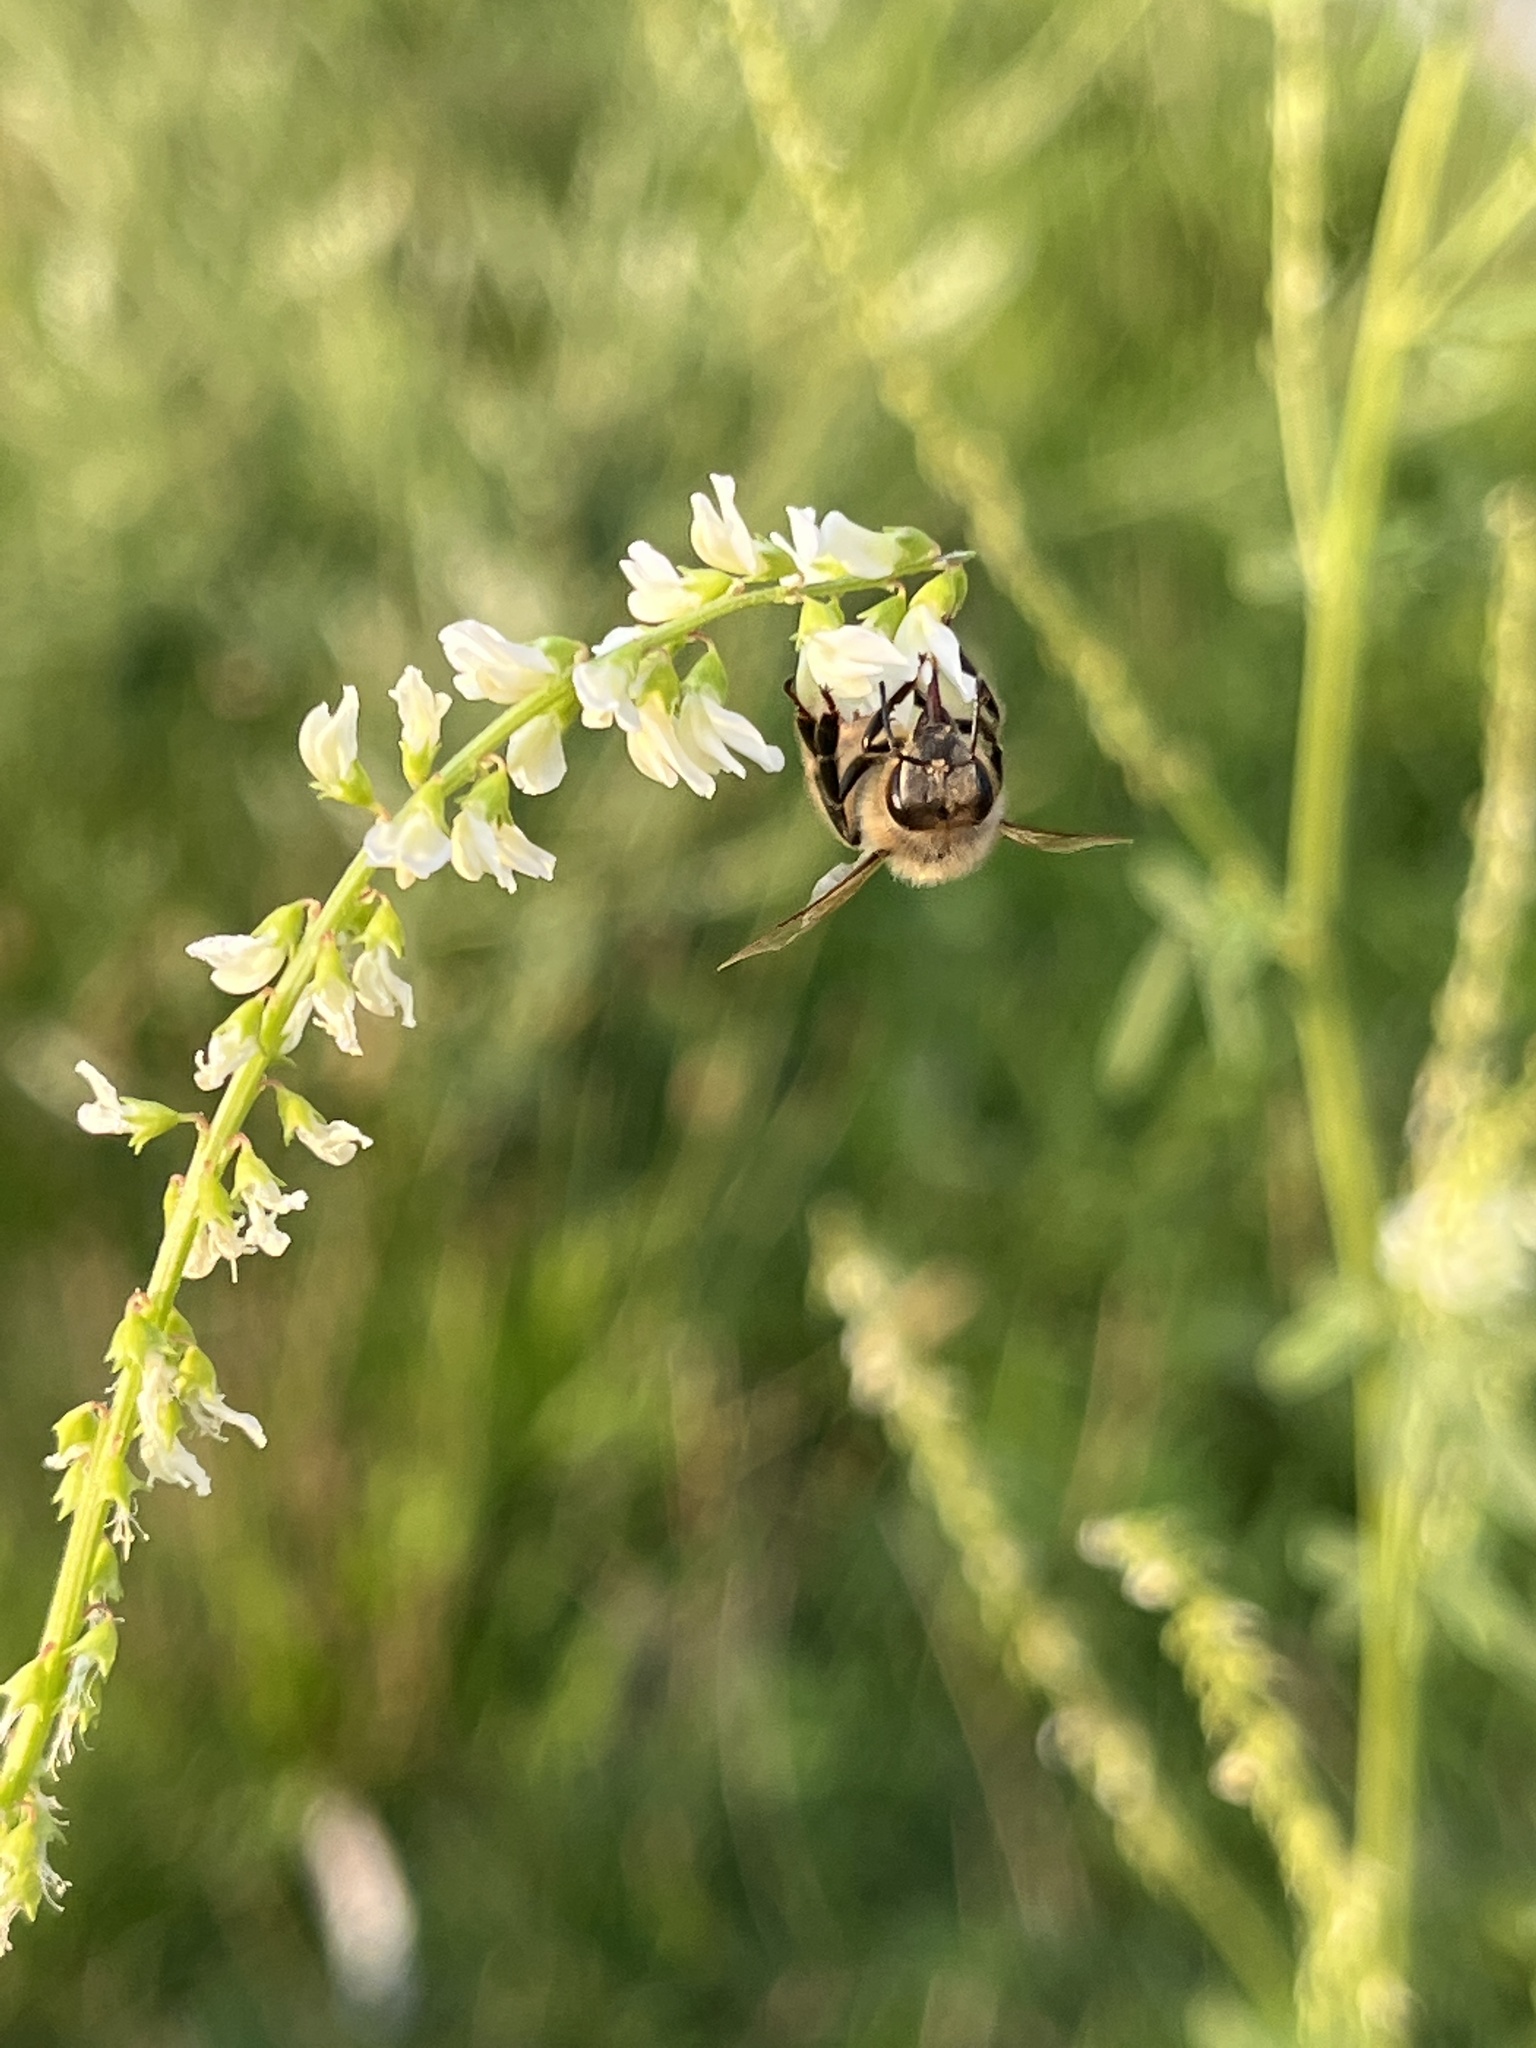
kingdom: Animalia
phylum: Arthropoda
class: Insecta
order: Hymenoptera
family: Apidae
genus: Apis
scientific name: Apis mellifera
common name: Honey bee
